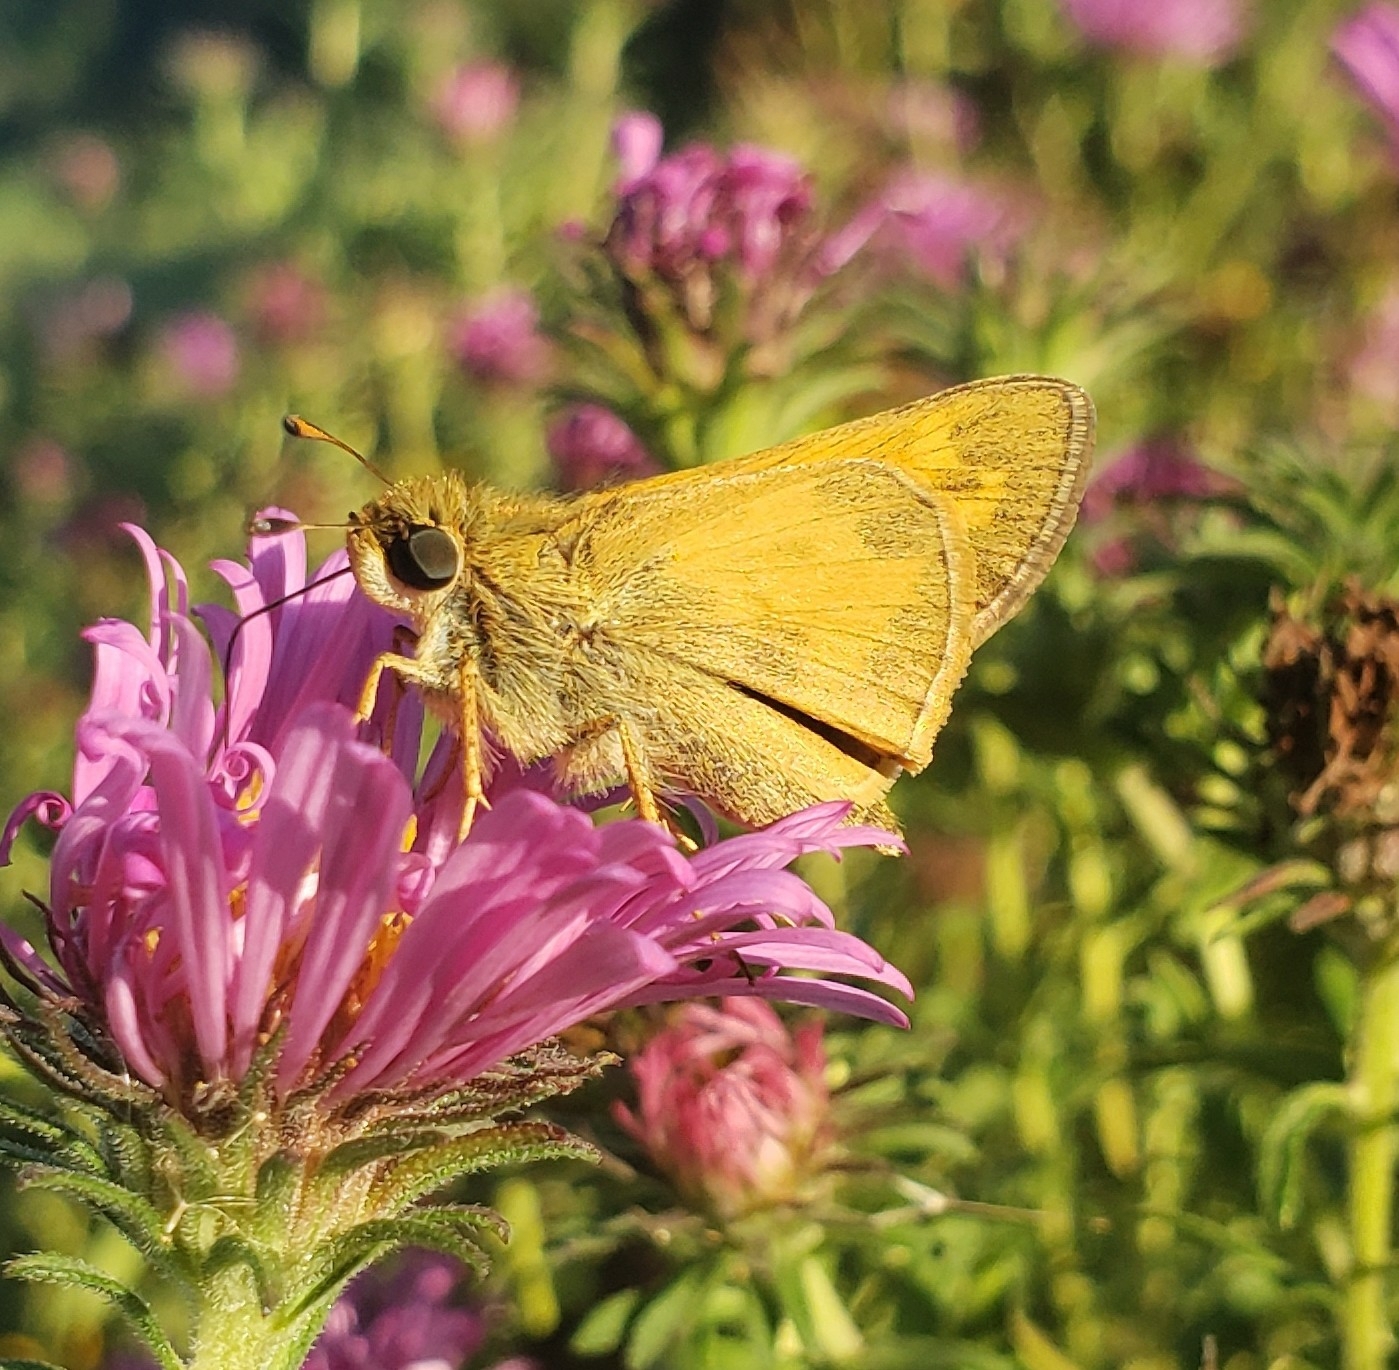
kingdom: Animalia
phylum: Arthropoda
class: Insecta
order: Lepidoptera
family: Hesperiidae
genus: Atalopedes
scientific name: Atalopedes
